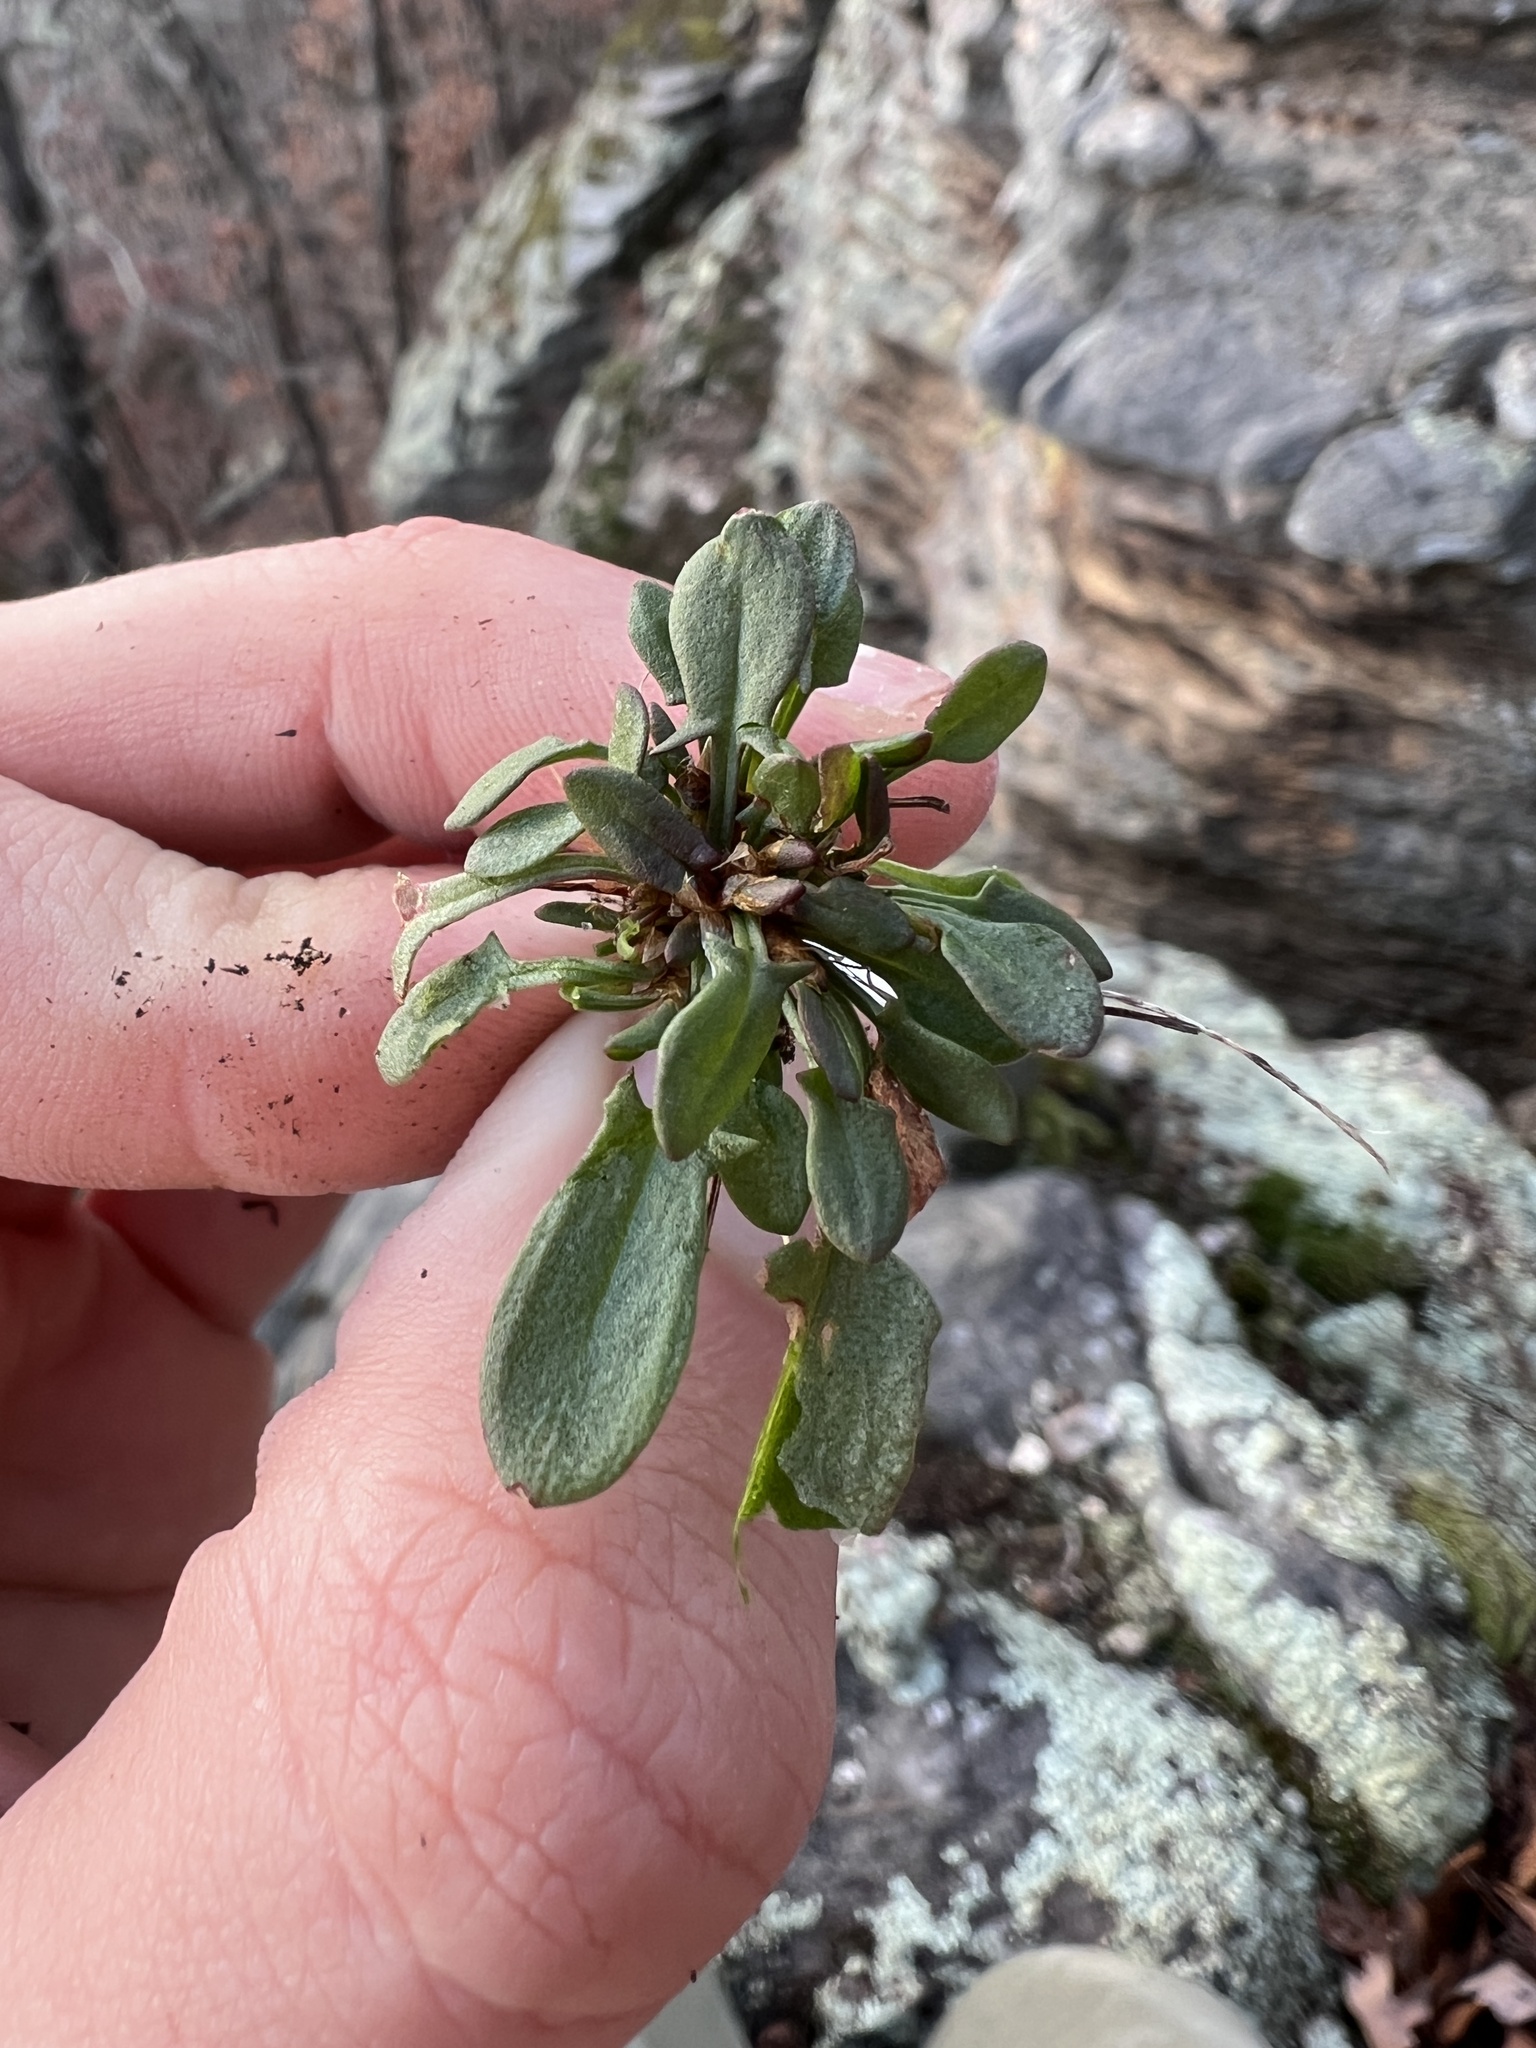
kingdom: Plantae
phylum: Tracheophyta
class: Magnoliopsida
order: Caryophyllales
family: Polygonaceae
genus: Rumex
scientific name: Rumex hastatulus
